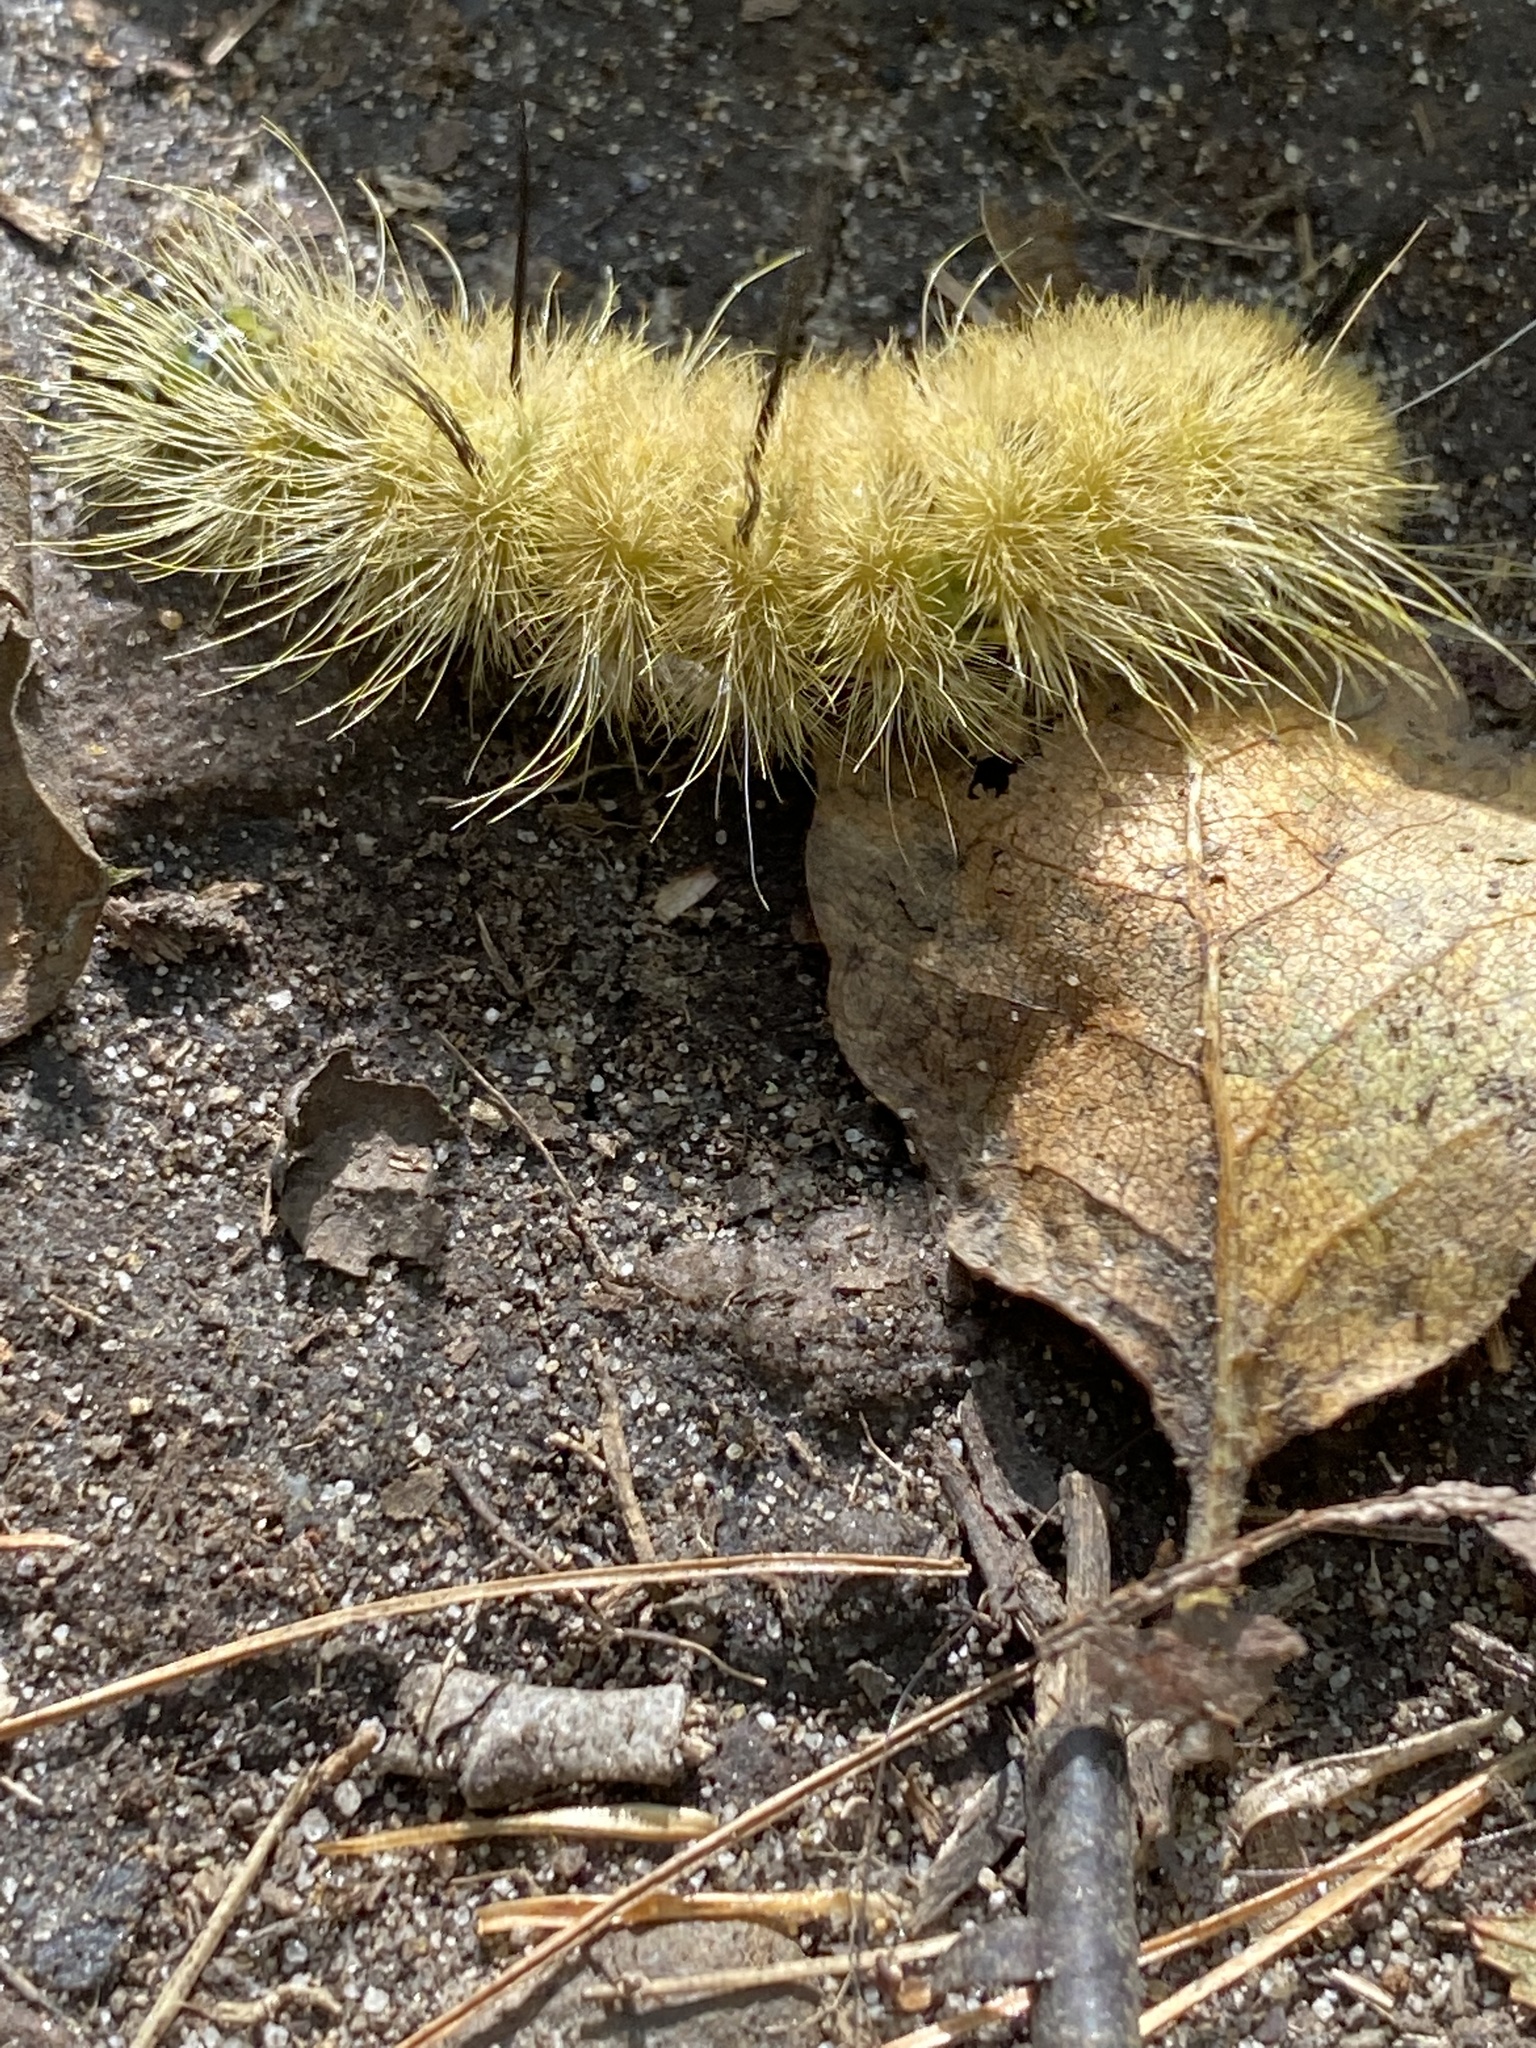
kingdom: Animalia
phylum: Arthropoda
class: Insecta
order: Lepidoptera
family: Noctuidae
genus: Acronicta
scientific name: Acronicta americana
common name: American dagger
